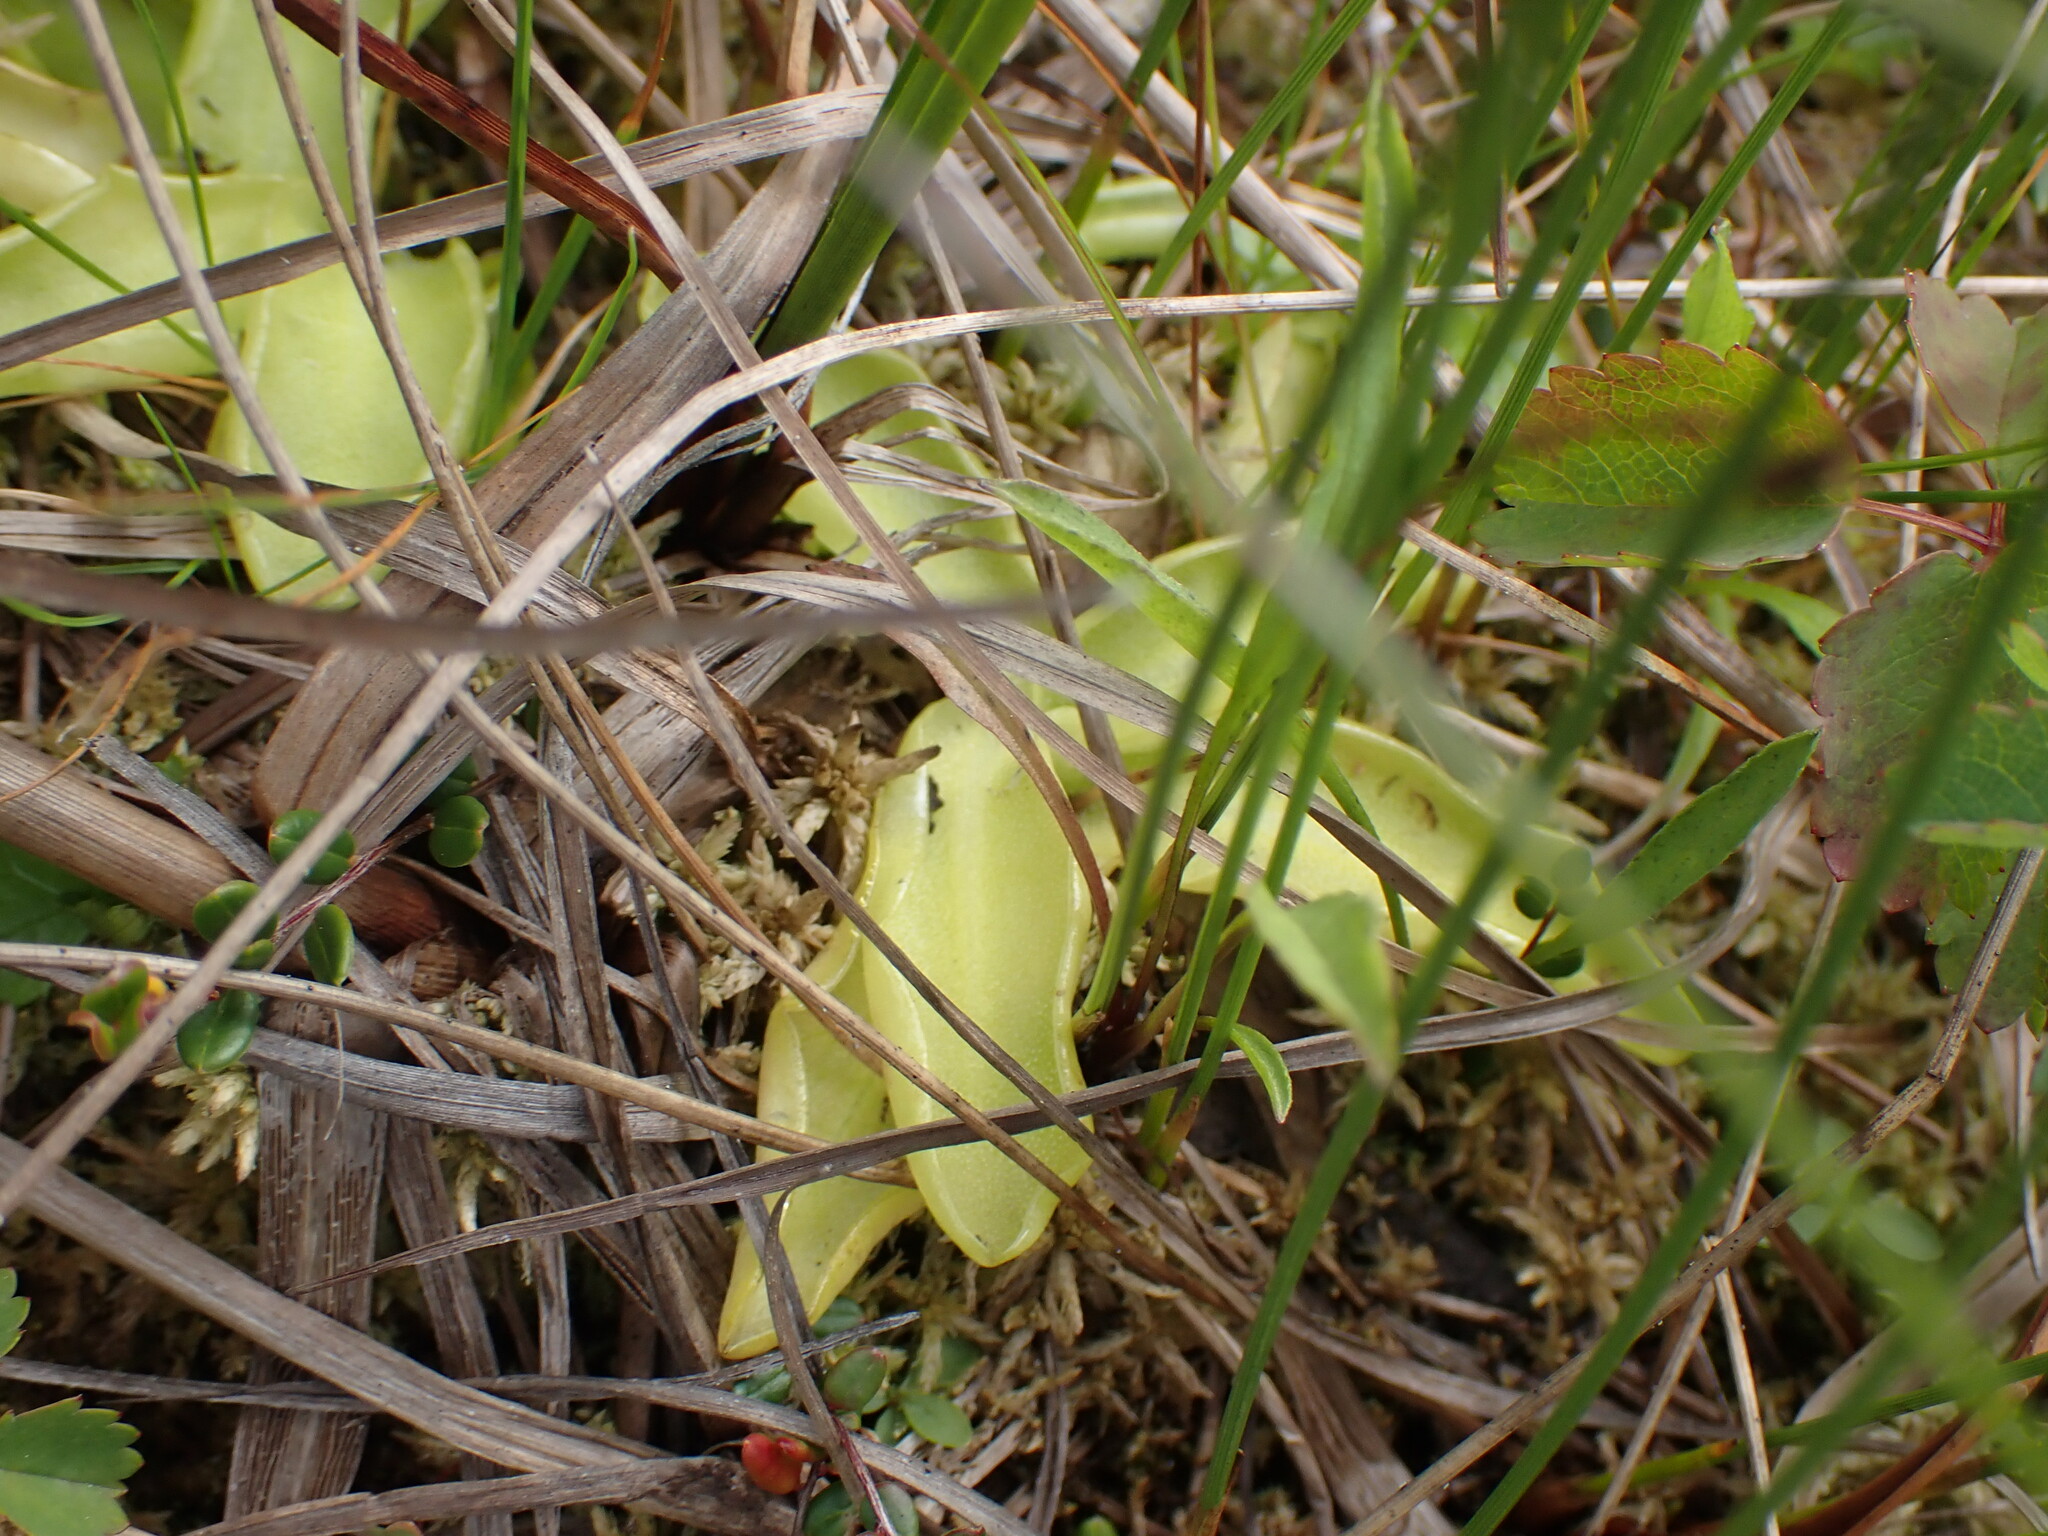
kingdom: Plantae
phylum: Tracheophyta
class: Magnoliopsida
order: Lamiales
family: Lentibulariaceae
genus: Pinguicula
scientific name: Pinguicula vulgaris
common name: Common butterwort
